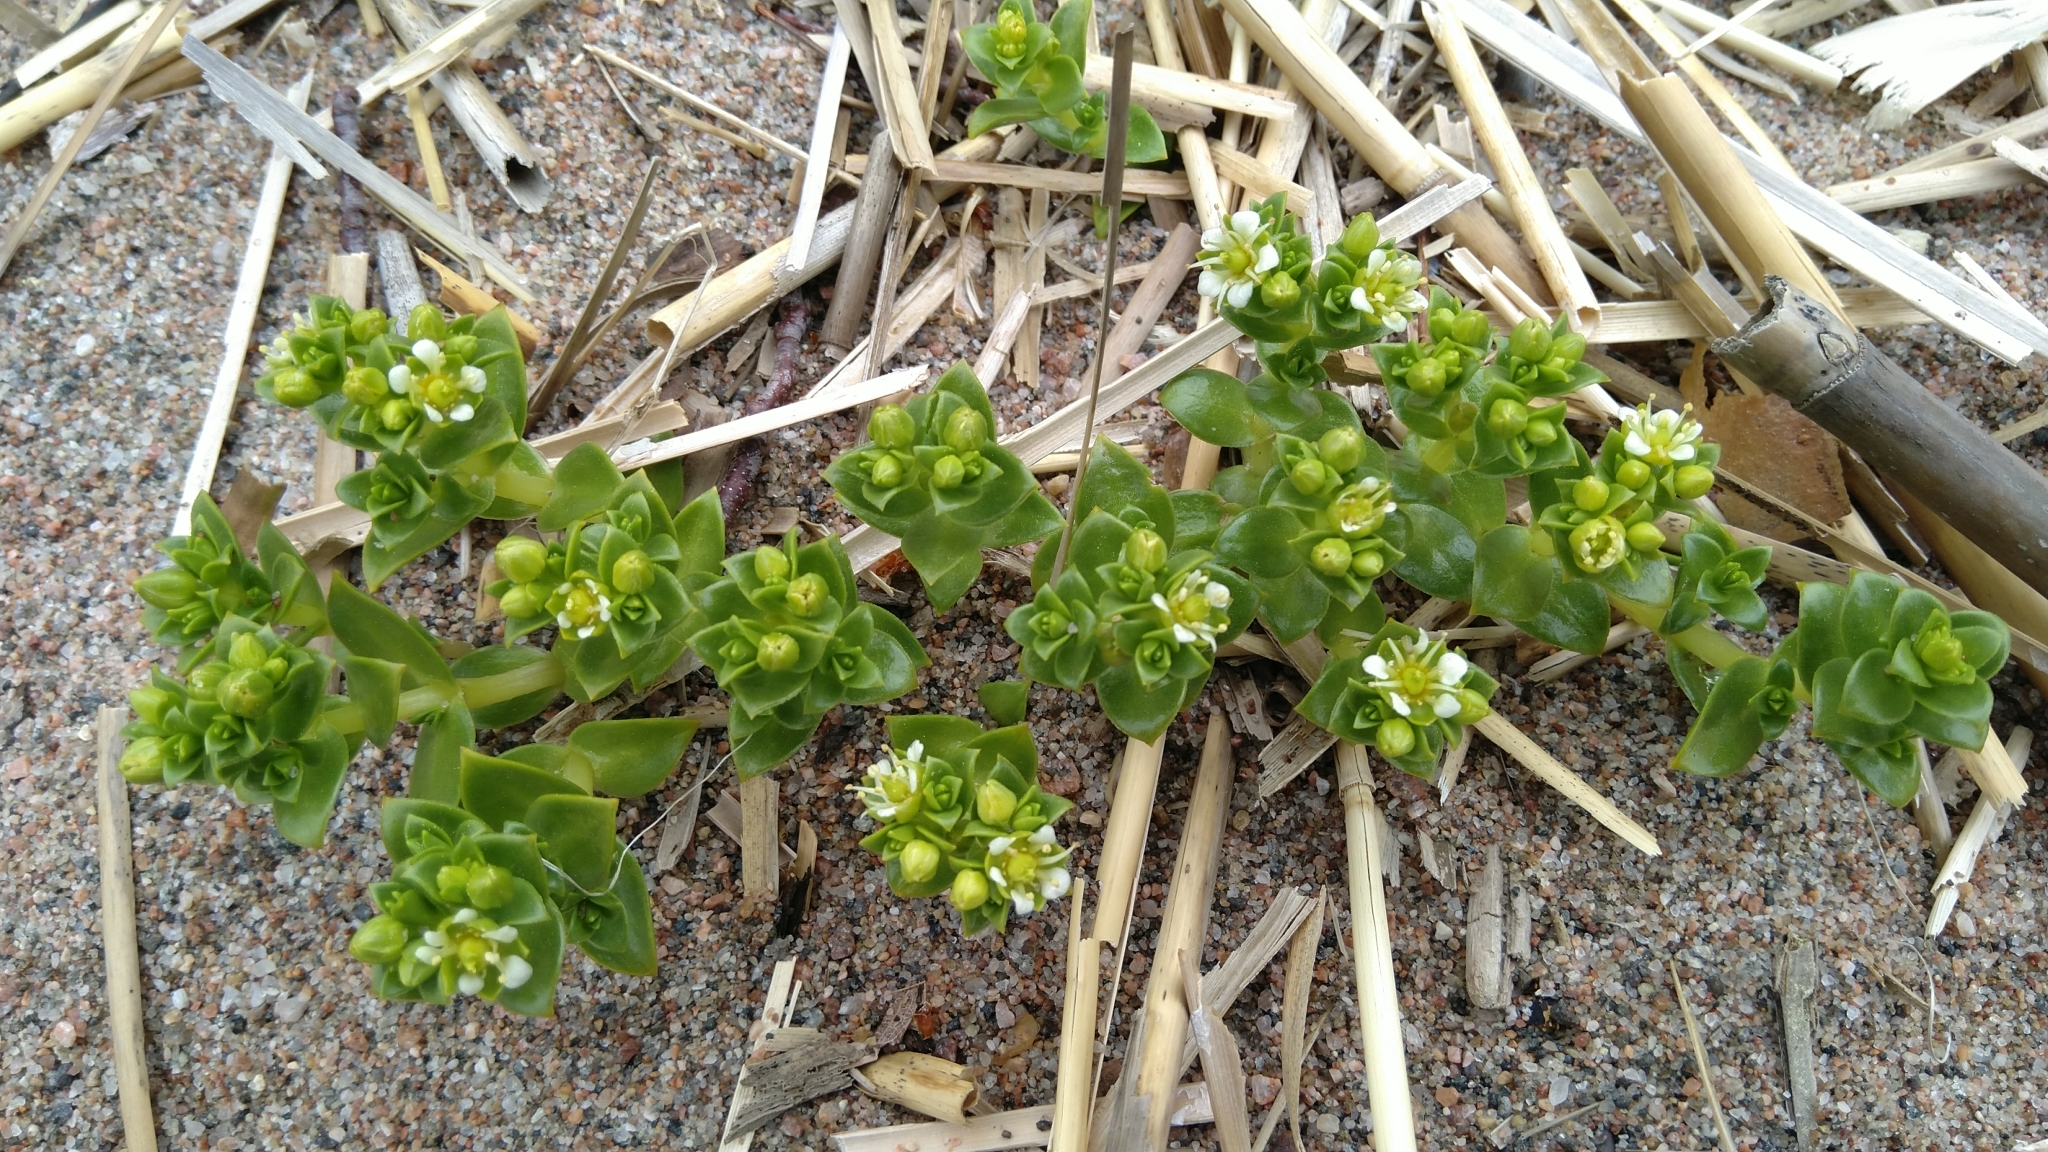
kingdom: Plantae
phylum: Tracheophyta
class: Magnoliopsida
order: Caryophyllales
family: Caryophyllaceae
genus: Honckenya
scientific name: Honckenya peploides
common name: Sea sandwort
